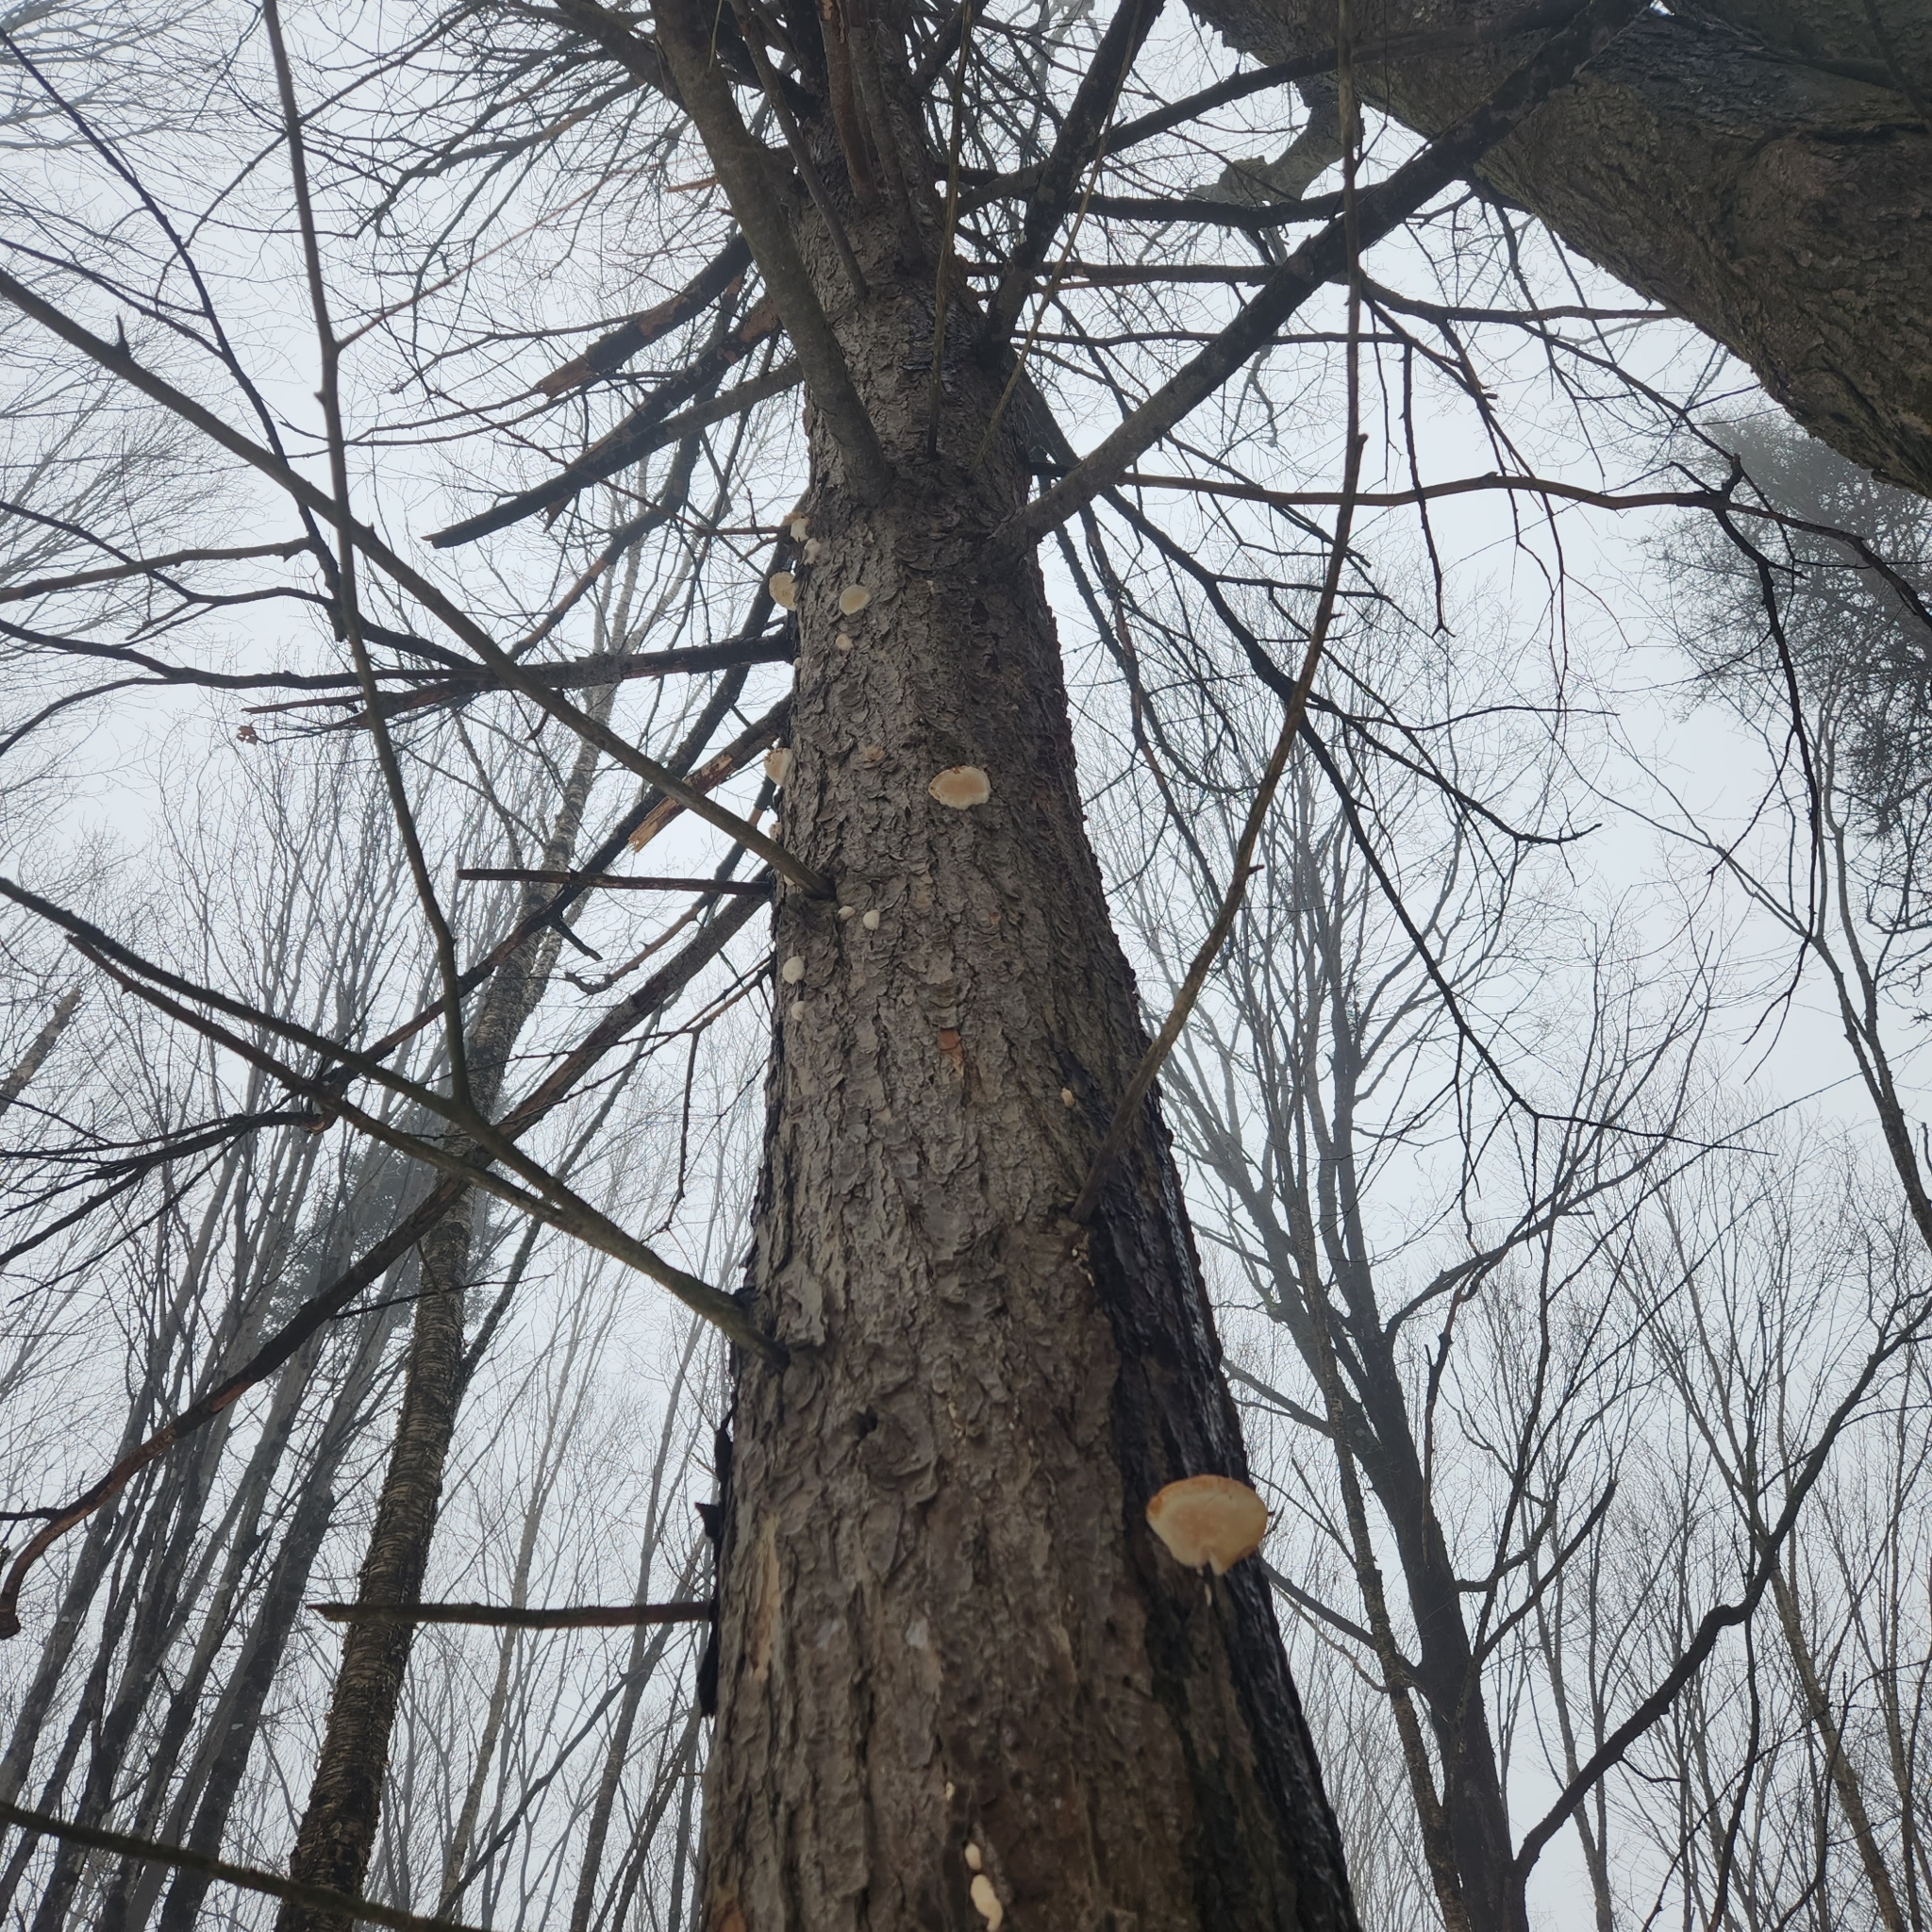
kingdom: Plantae
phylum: Tracheophyta
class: Pinopsida
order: Pinales
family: Pinaceae
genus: Tsuga
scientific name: Tsuga canadensis
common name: Eastern hemlock
